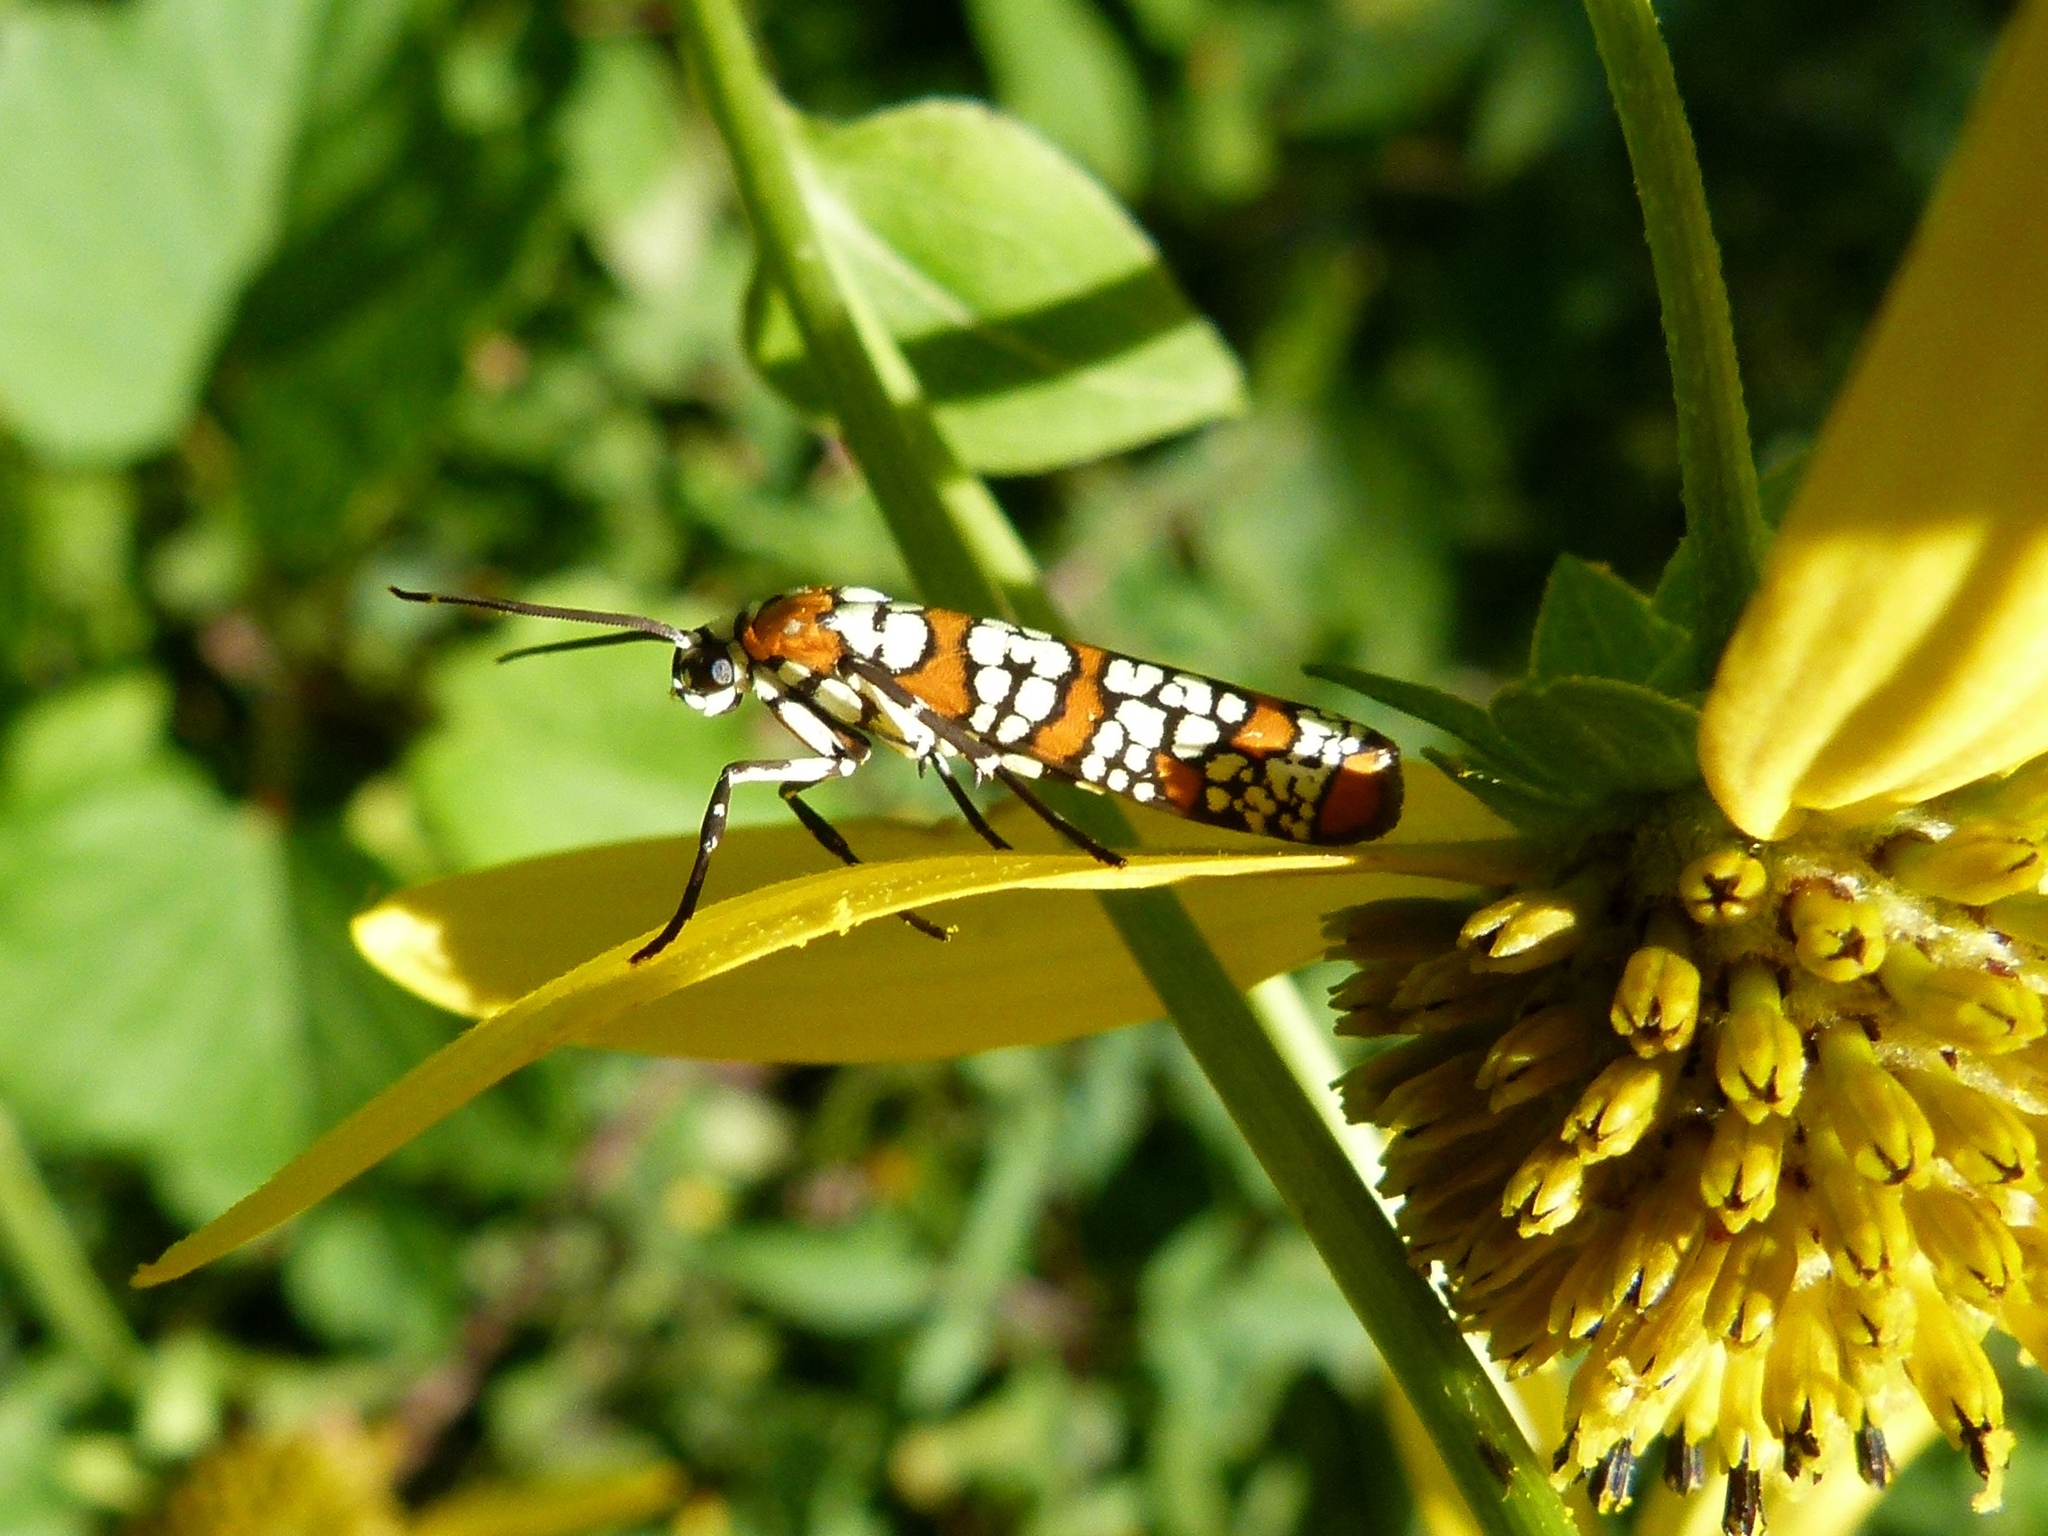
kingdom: Animalia
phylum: Arthropoda
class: Insecta
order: Lepidoptera
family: Attevidae
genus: Atteva
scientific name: Atteva punctella
